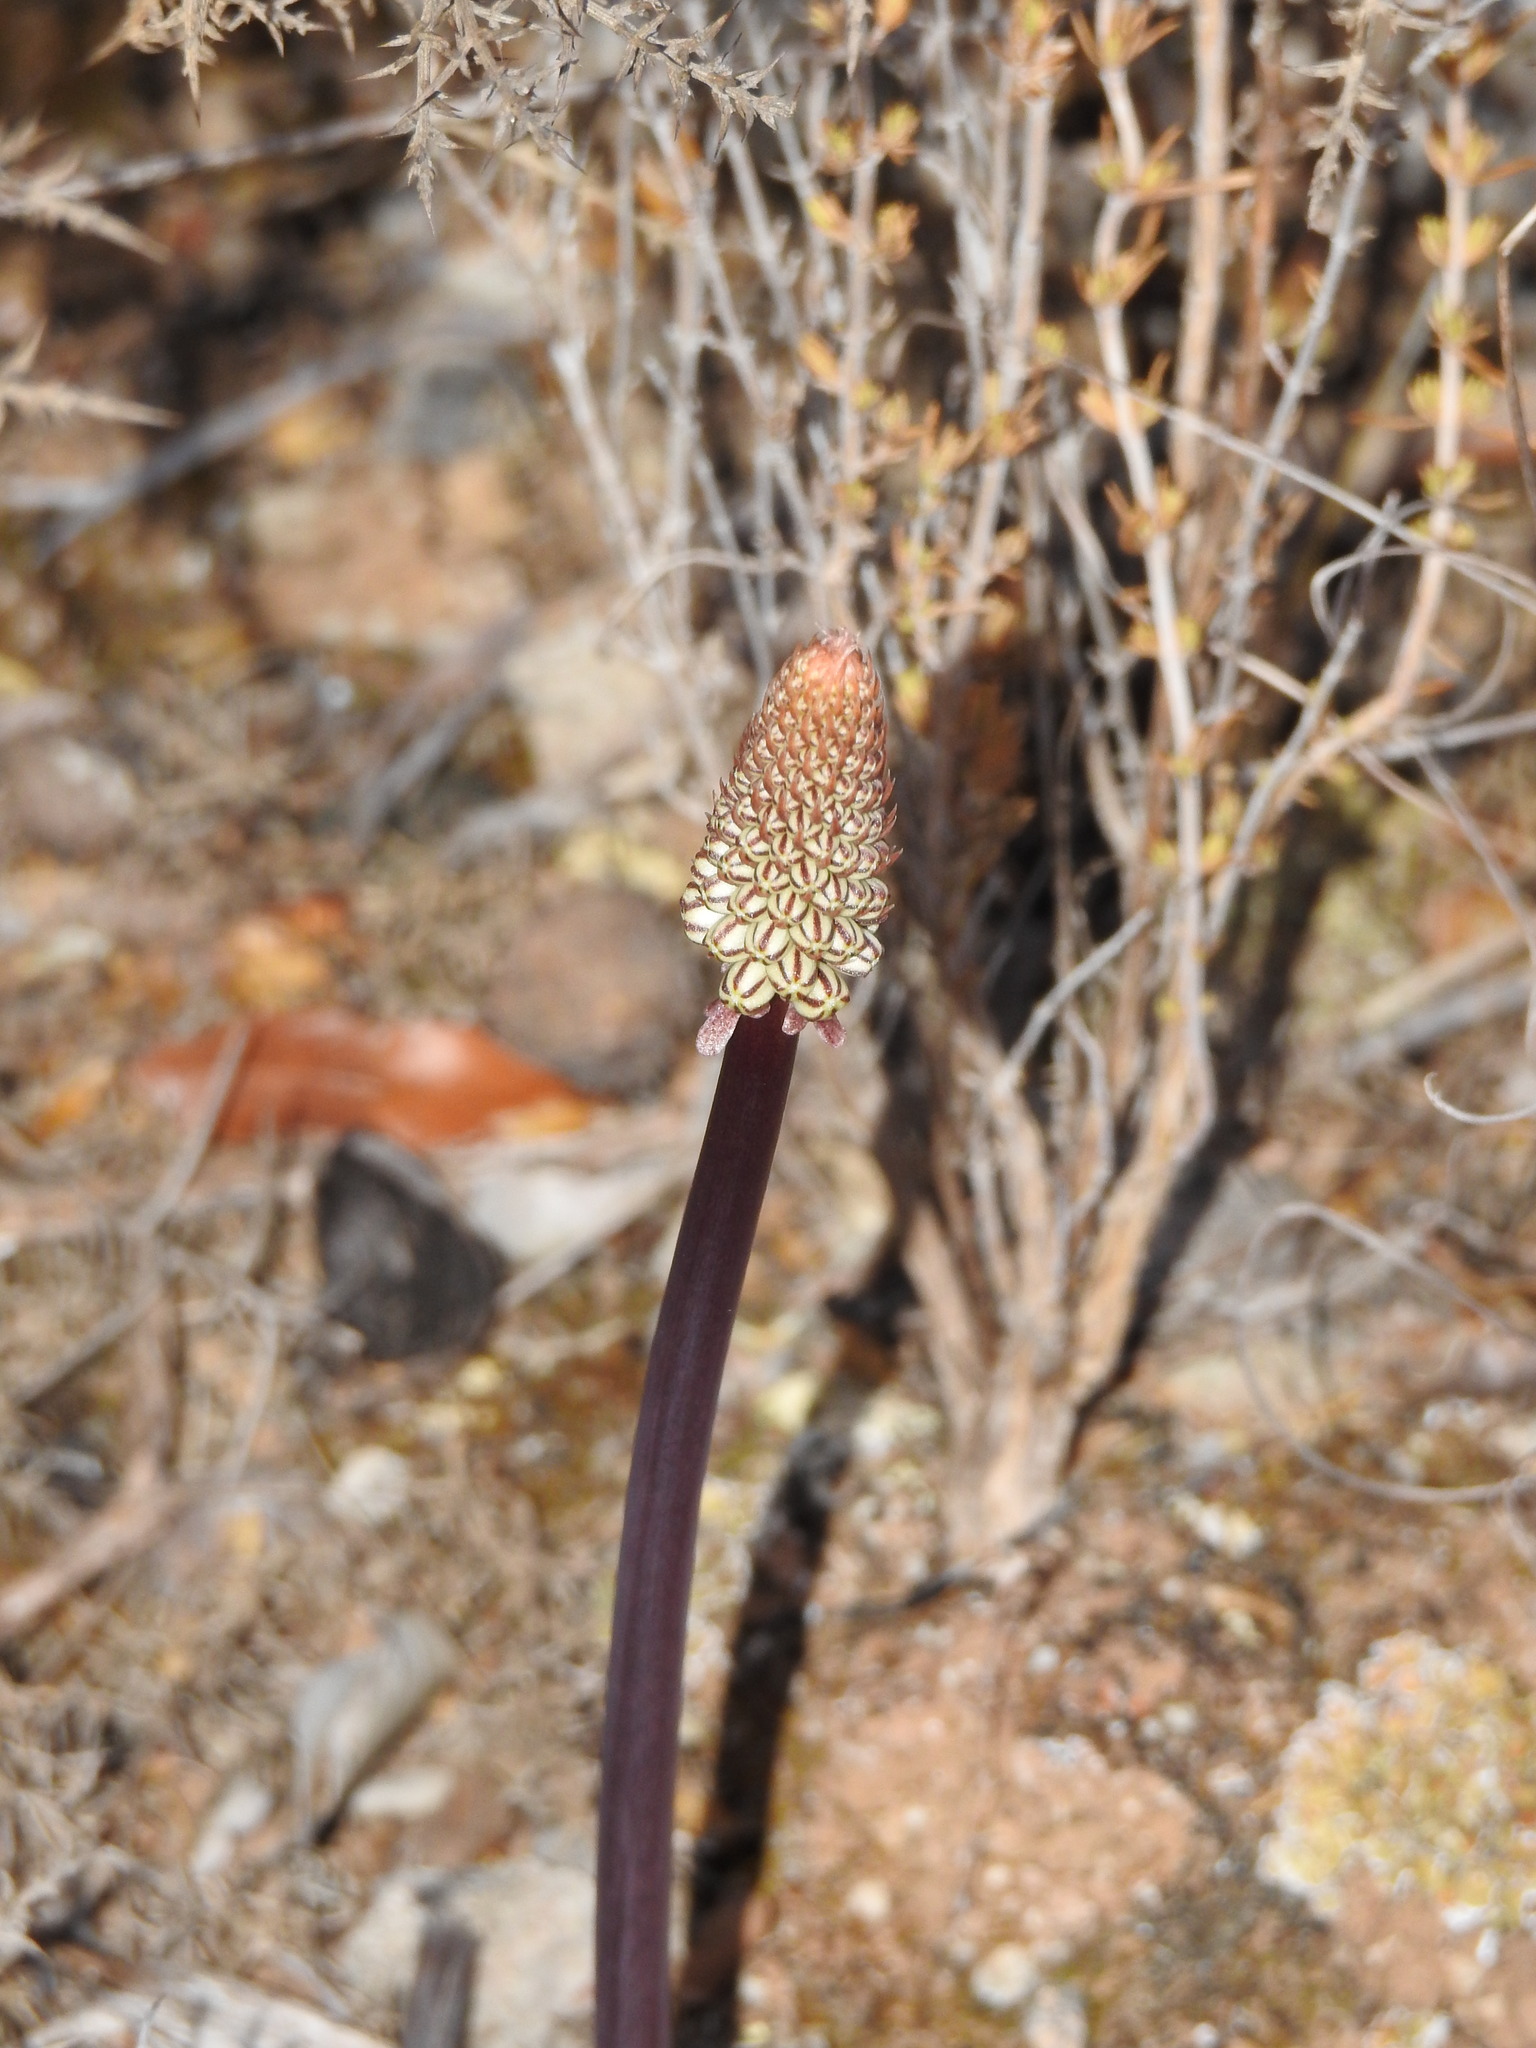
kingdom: Plantae
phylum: Tracheophyta
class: Liliopsida
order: Asparagales
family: Asparagaceae
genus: Drimia
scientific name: Drimia maritima
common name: Maritime squill
